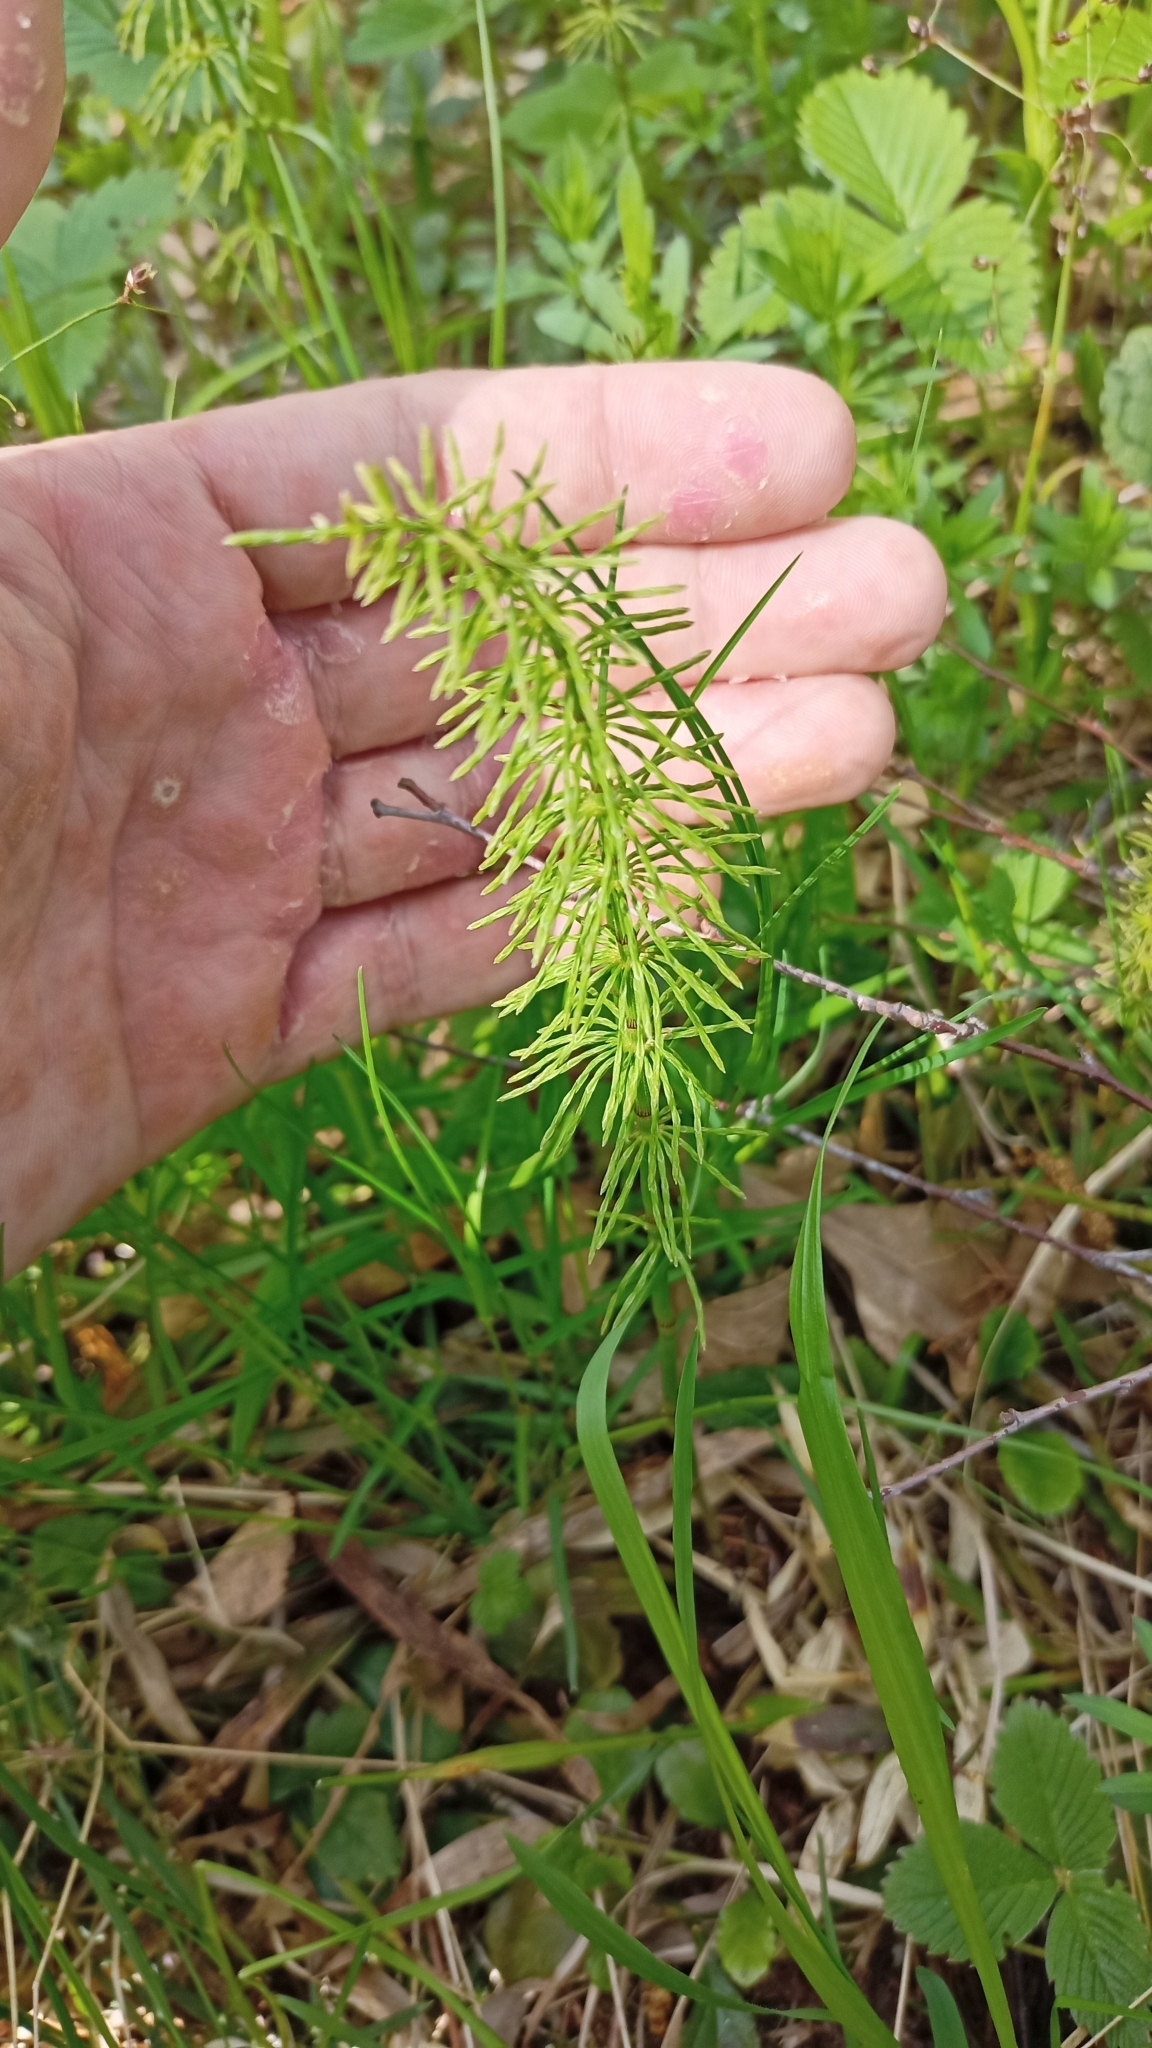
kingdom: Plantae
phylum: Tracheophyta
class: Polypodiopsida
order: Equisetales
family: Equisetaceae
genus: Equisetum
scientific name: Equisetum pratense
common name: Meadow horsetail
